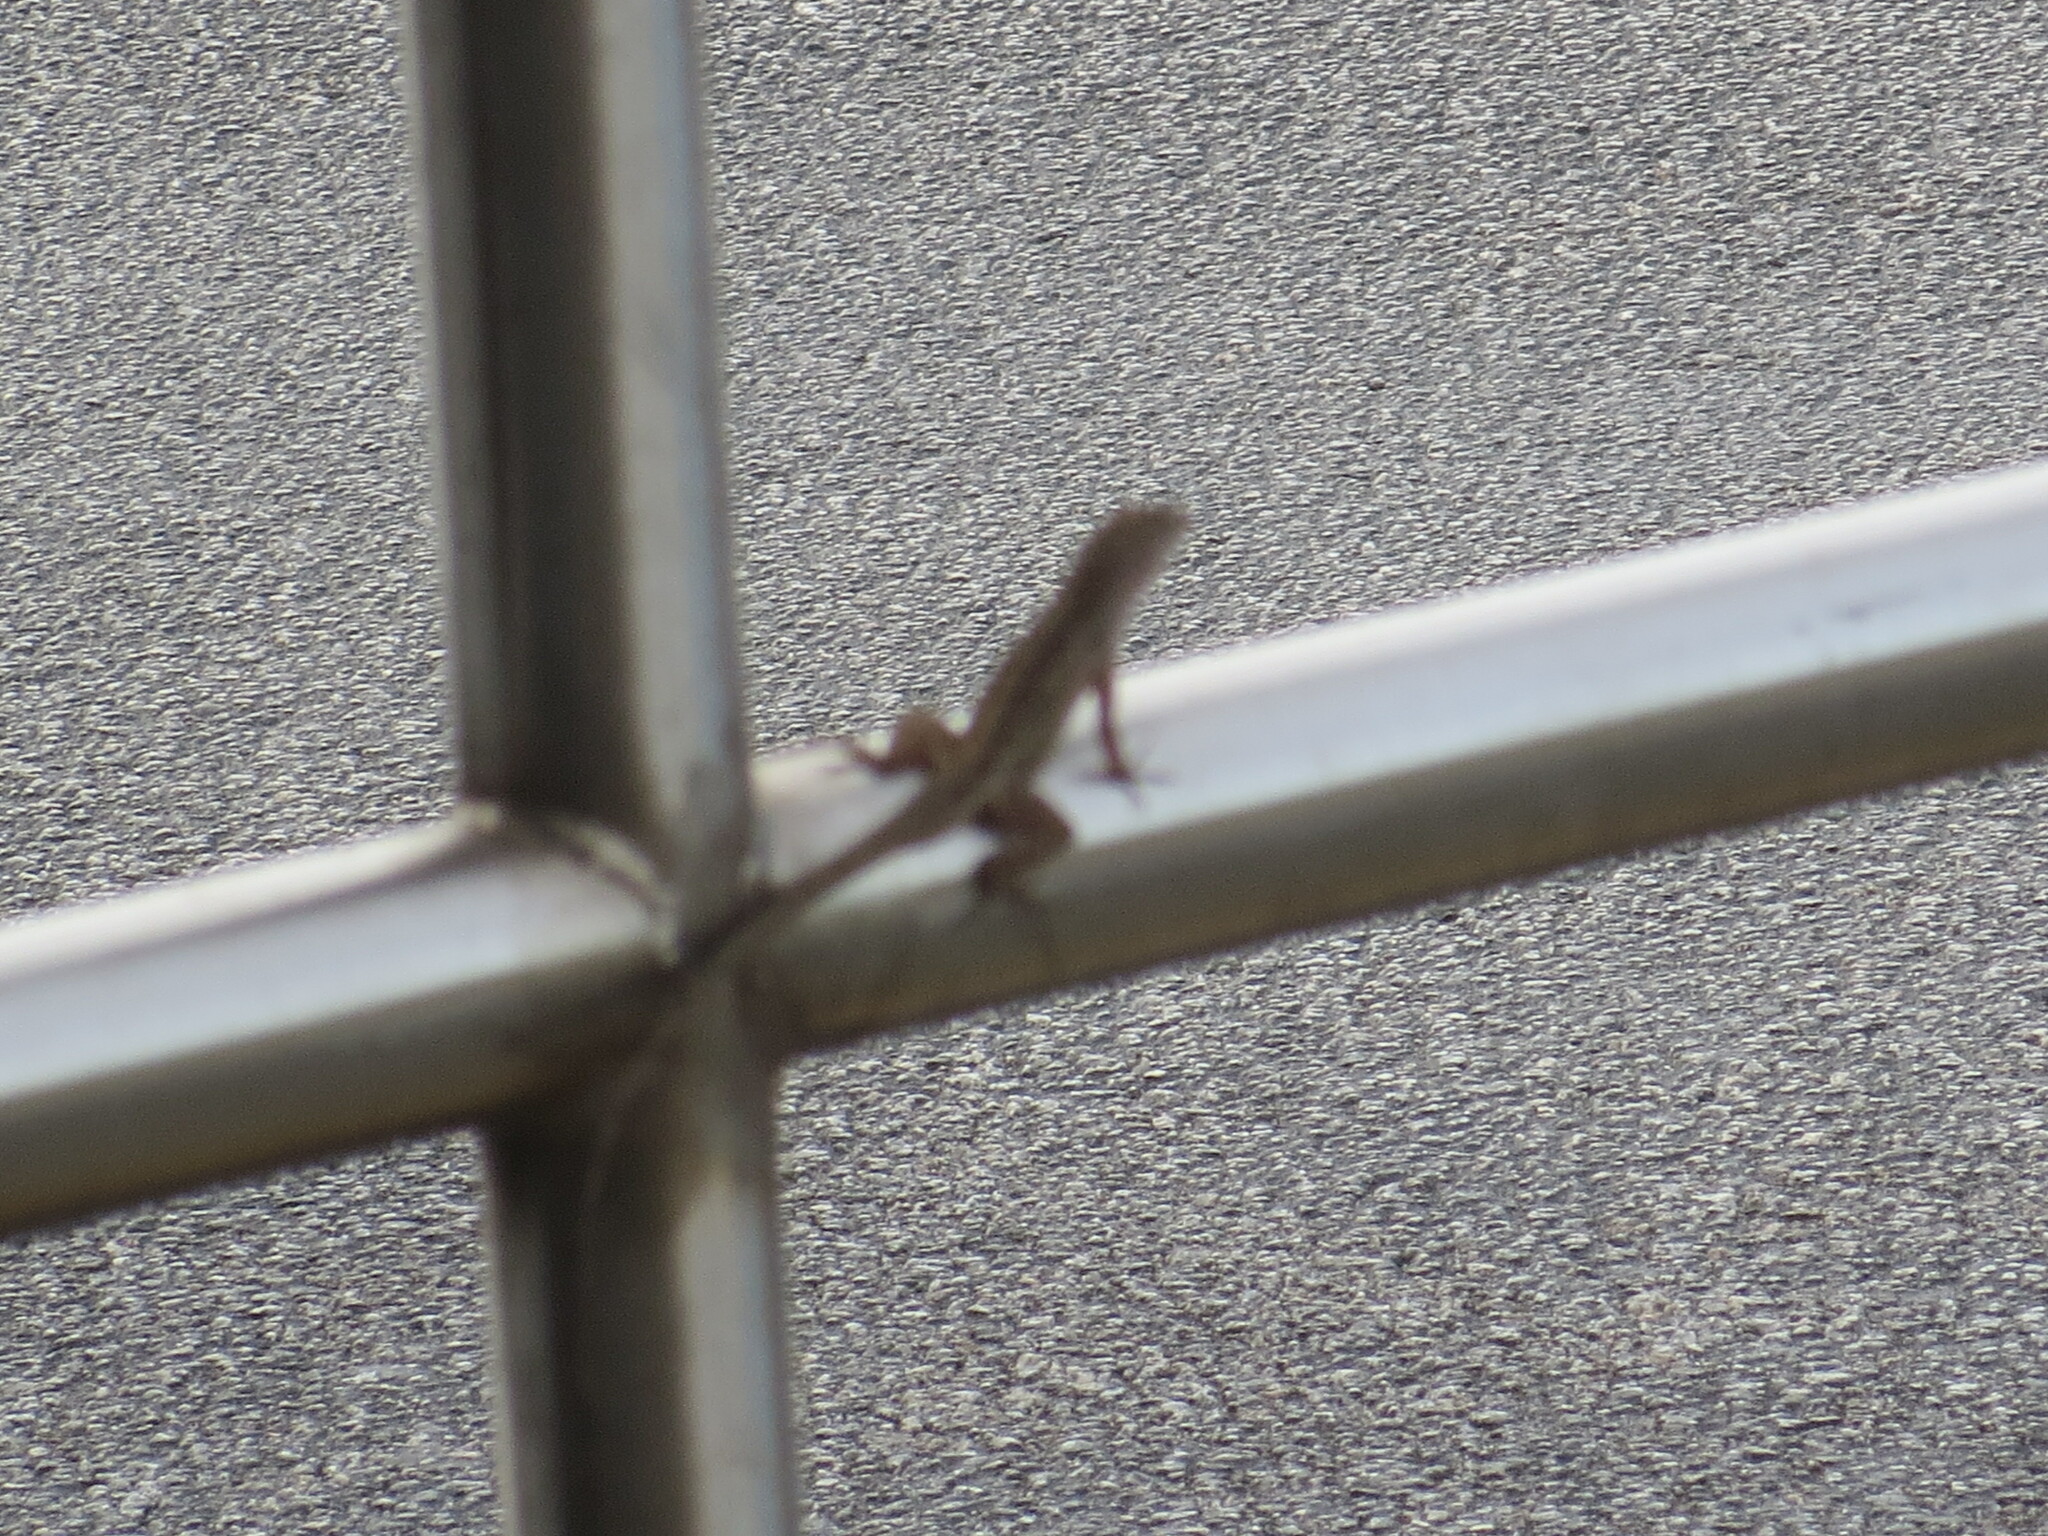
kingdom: Animalia
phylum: Chordata
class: Squamata
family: Dactyloidae
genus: Anolis
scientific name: Anolis sagrei
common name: Brown anole
